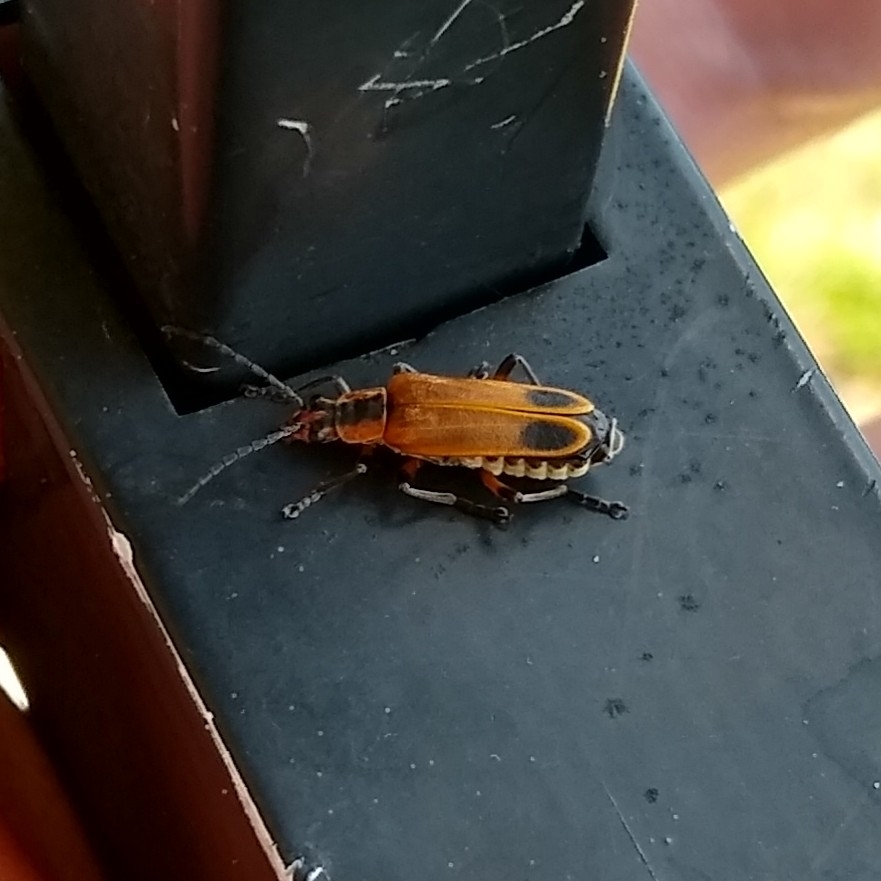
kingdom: Animalia
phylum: Arthropoda
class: Insecta
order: Coleoptera
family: Cantharidae
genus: Chauliognathus
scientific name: Chauliognathus marginatus
